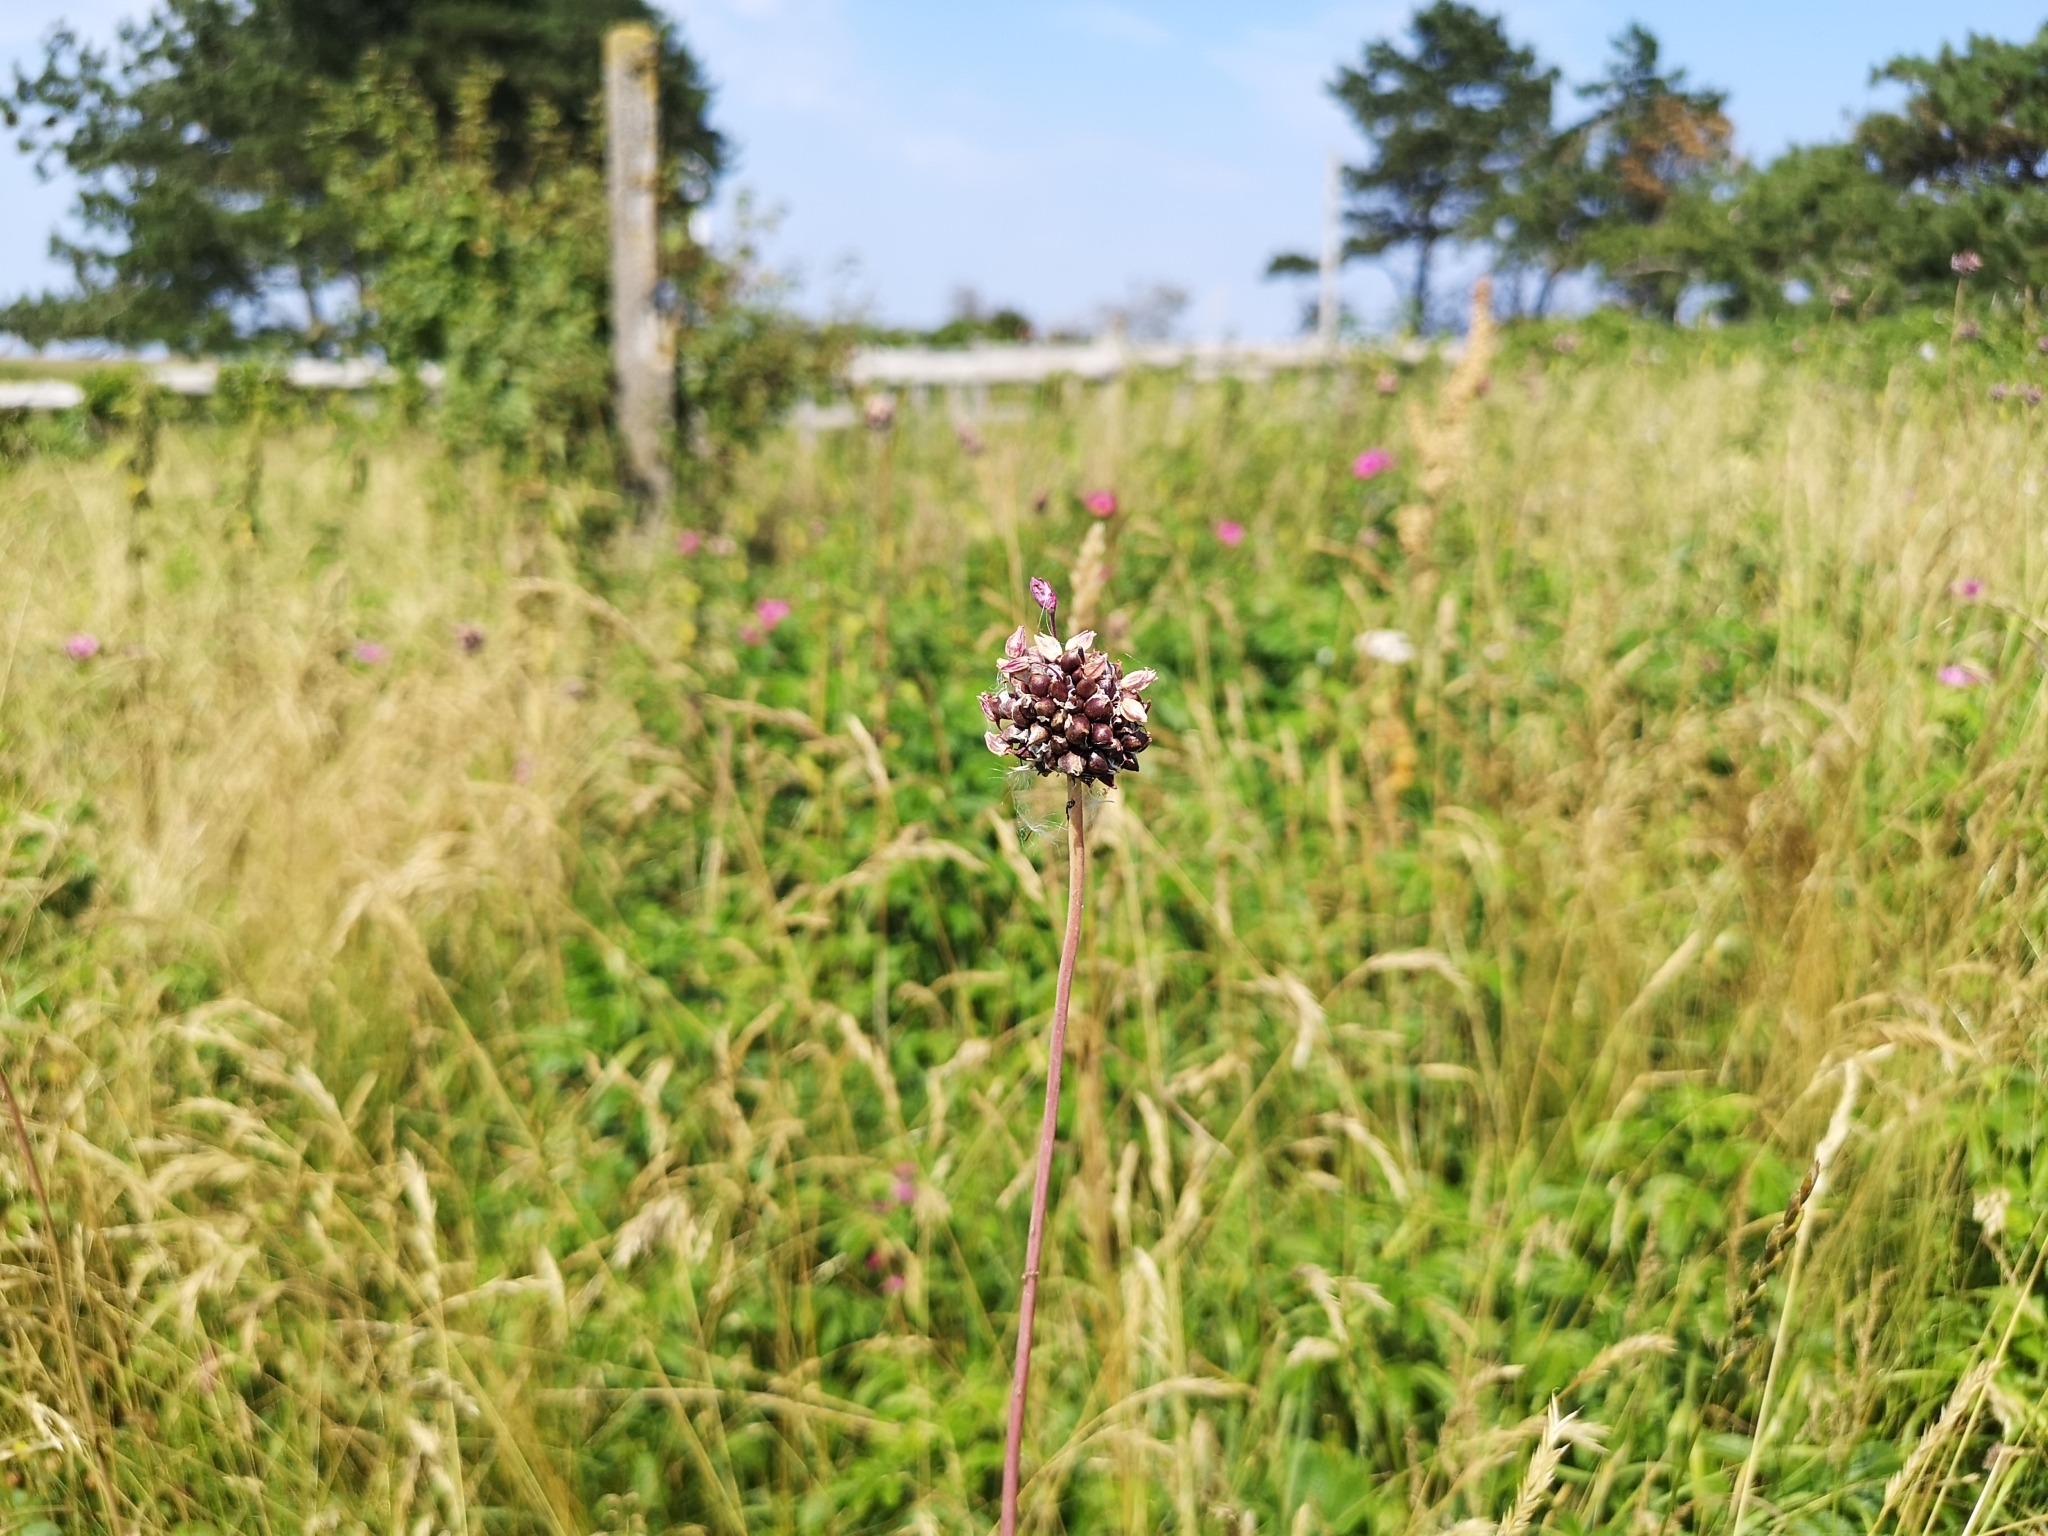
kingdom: Plantae
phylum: Tracheophyta
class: Liliopsida
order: Asparagales
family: Amaryllidaceae
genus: Allium
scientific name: Allium scorodoprasum
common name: Sand leek
